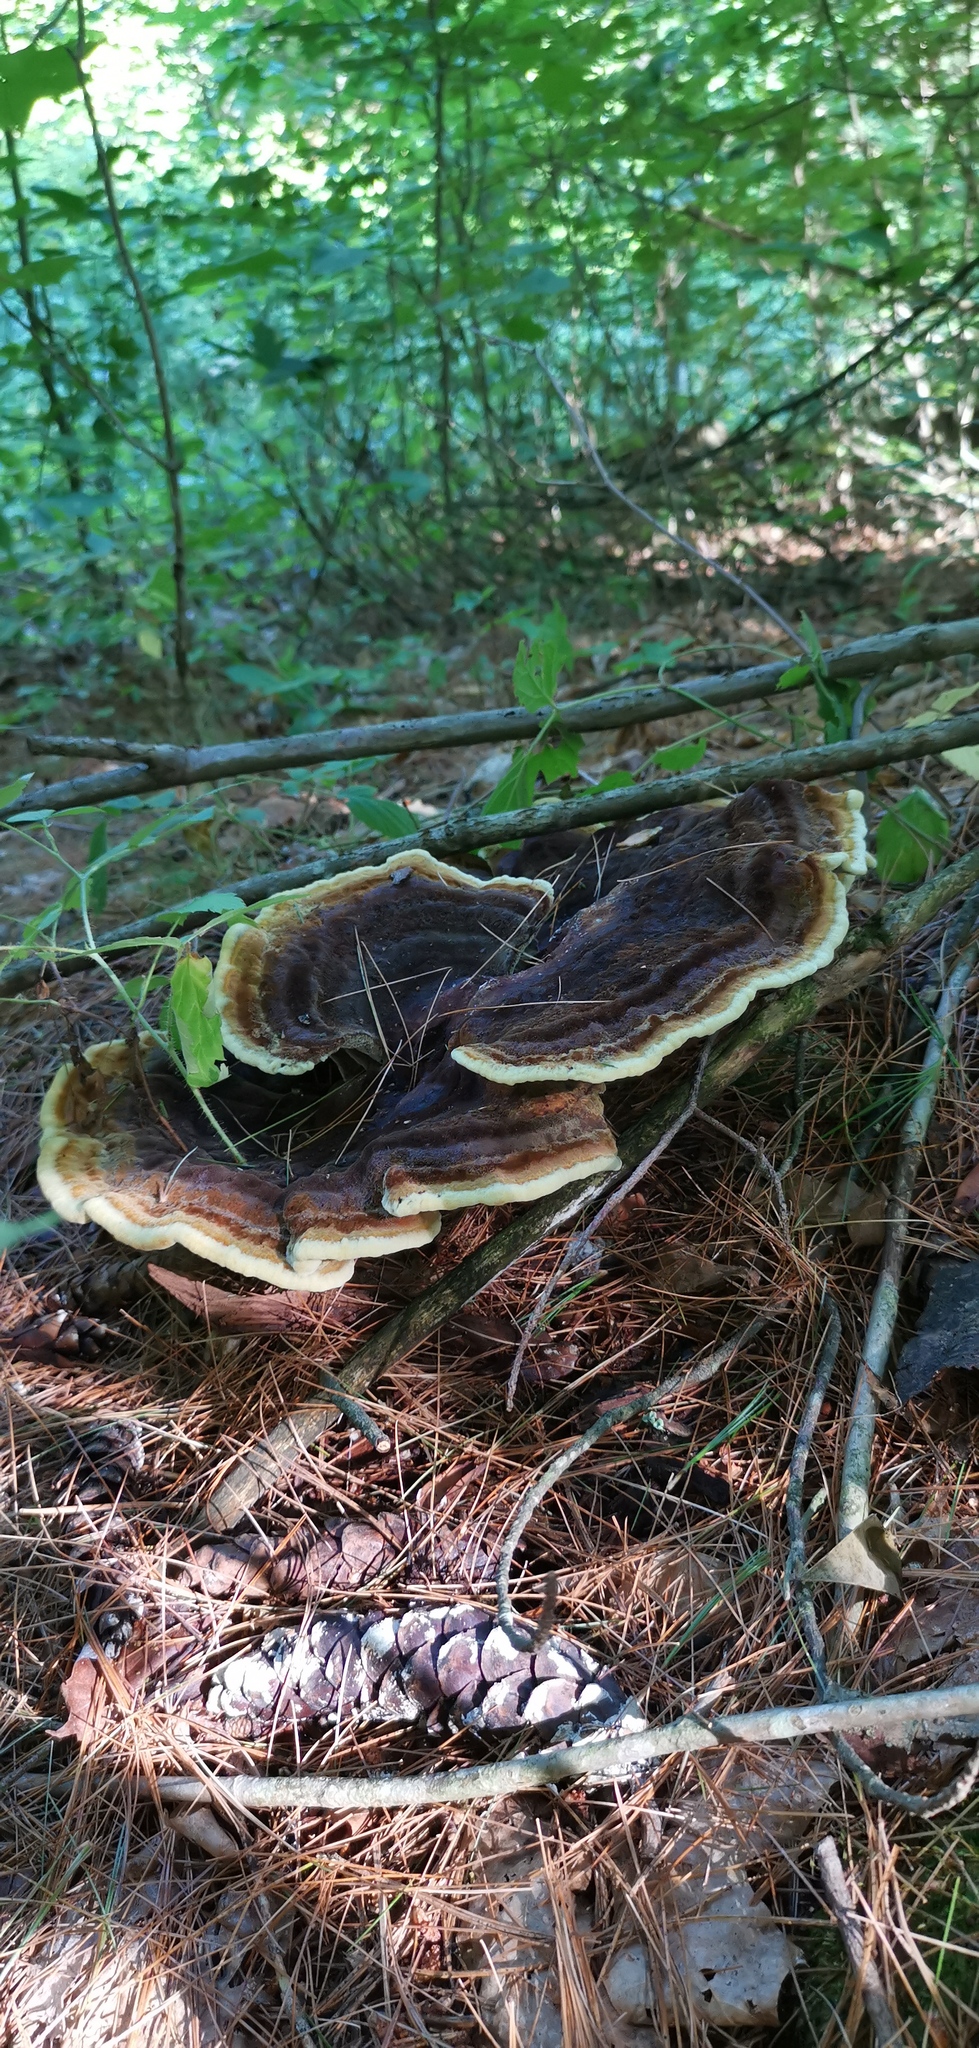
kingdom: Fungi
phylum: Basidiomycota
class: Agaricomycetes
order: Polyporales
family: Laetiporaceae
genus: Phaeolus
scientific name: Phaeolus schweinitzii
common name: Dyer's mazegill
